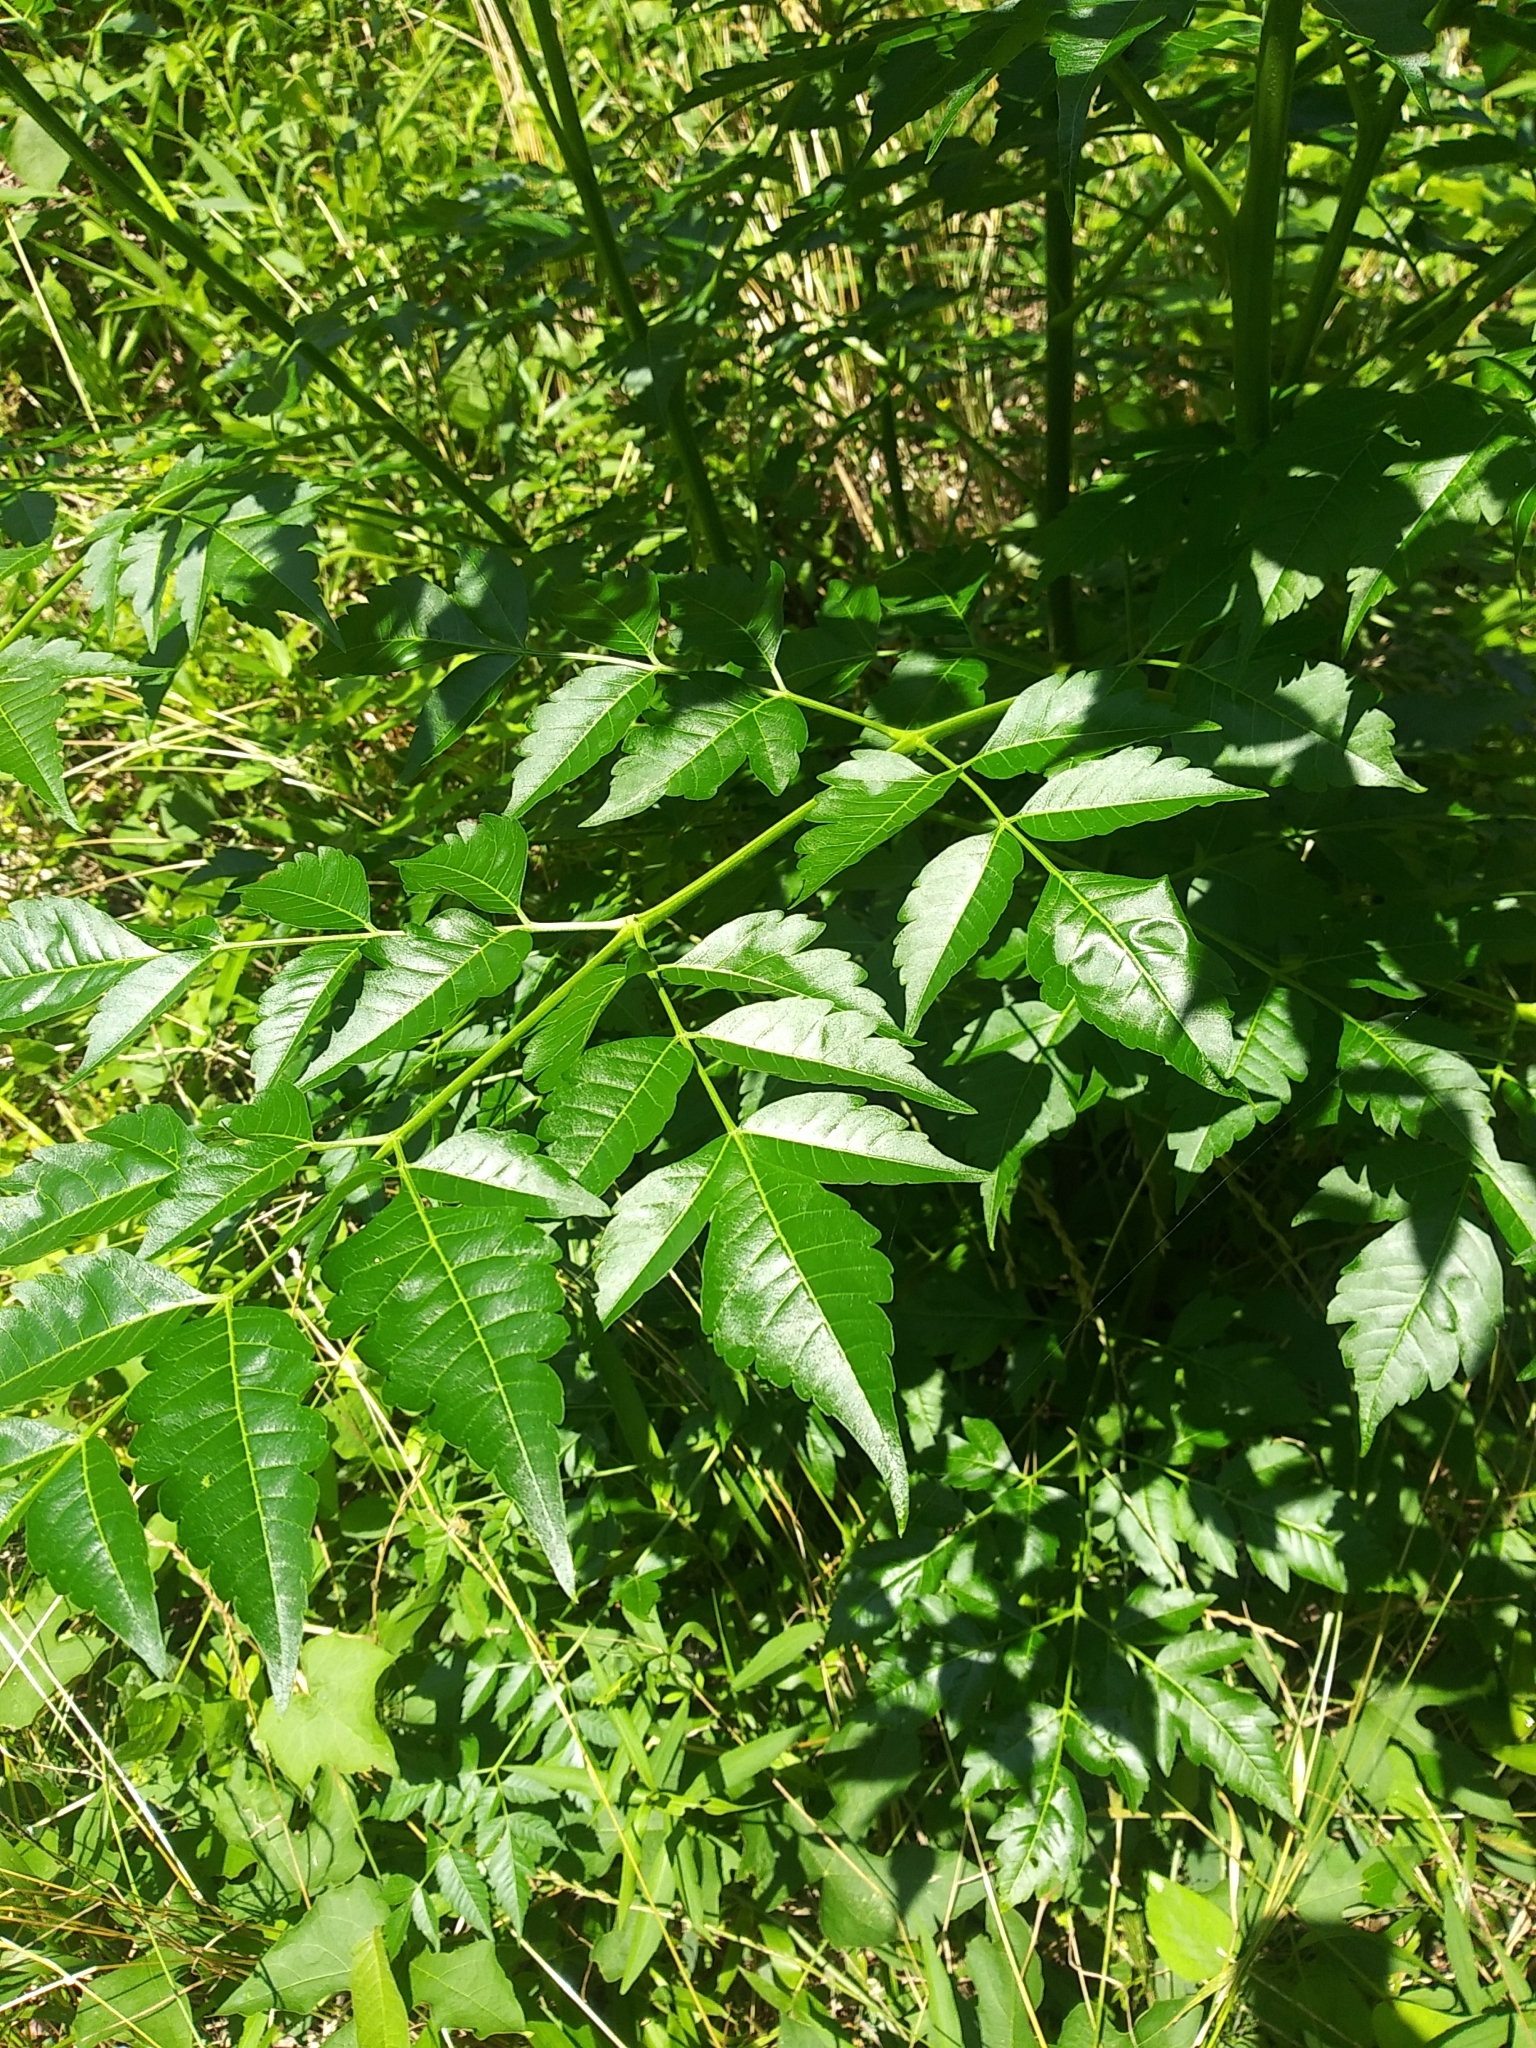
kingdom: Plantae
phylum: Tracheophyta
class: Magnoliopsida
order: Sapindales
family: Meliaceae
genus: Melia
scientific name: Melia azedarach
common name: Chinaberrytree
